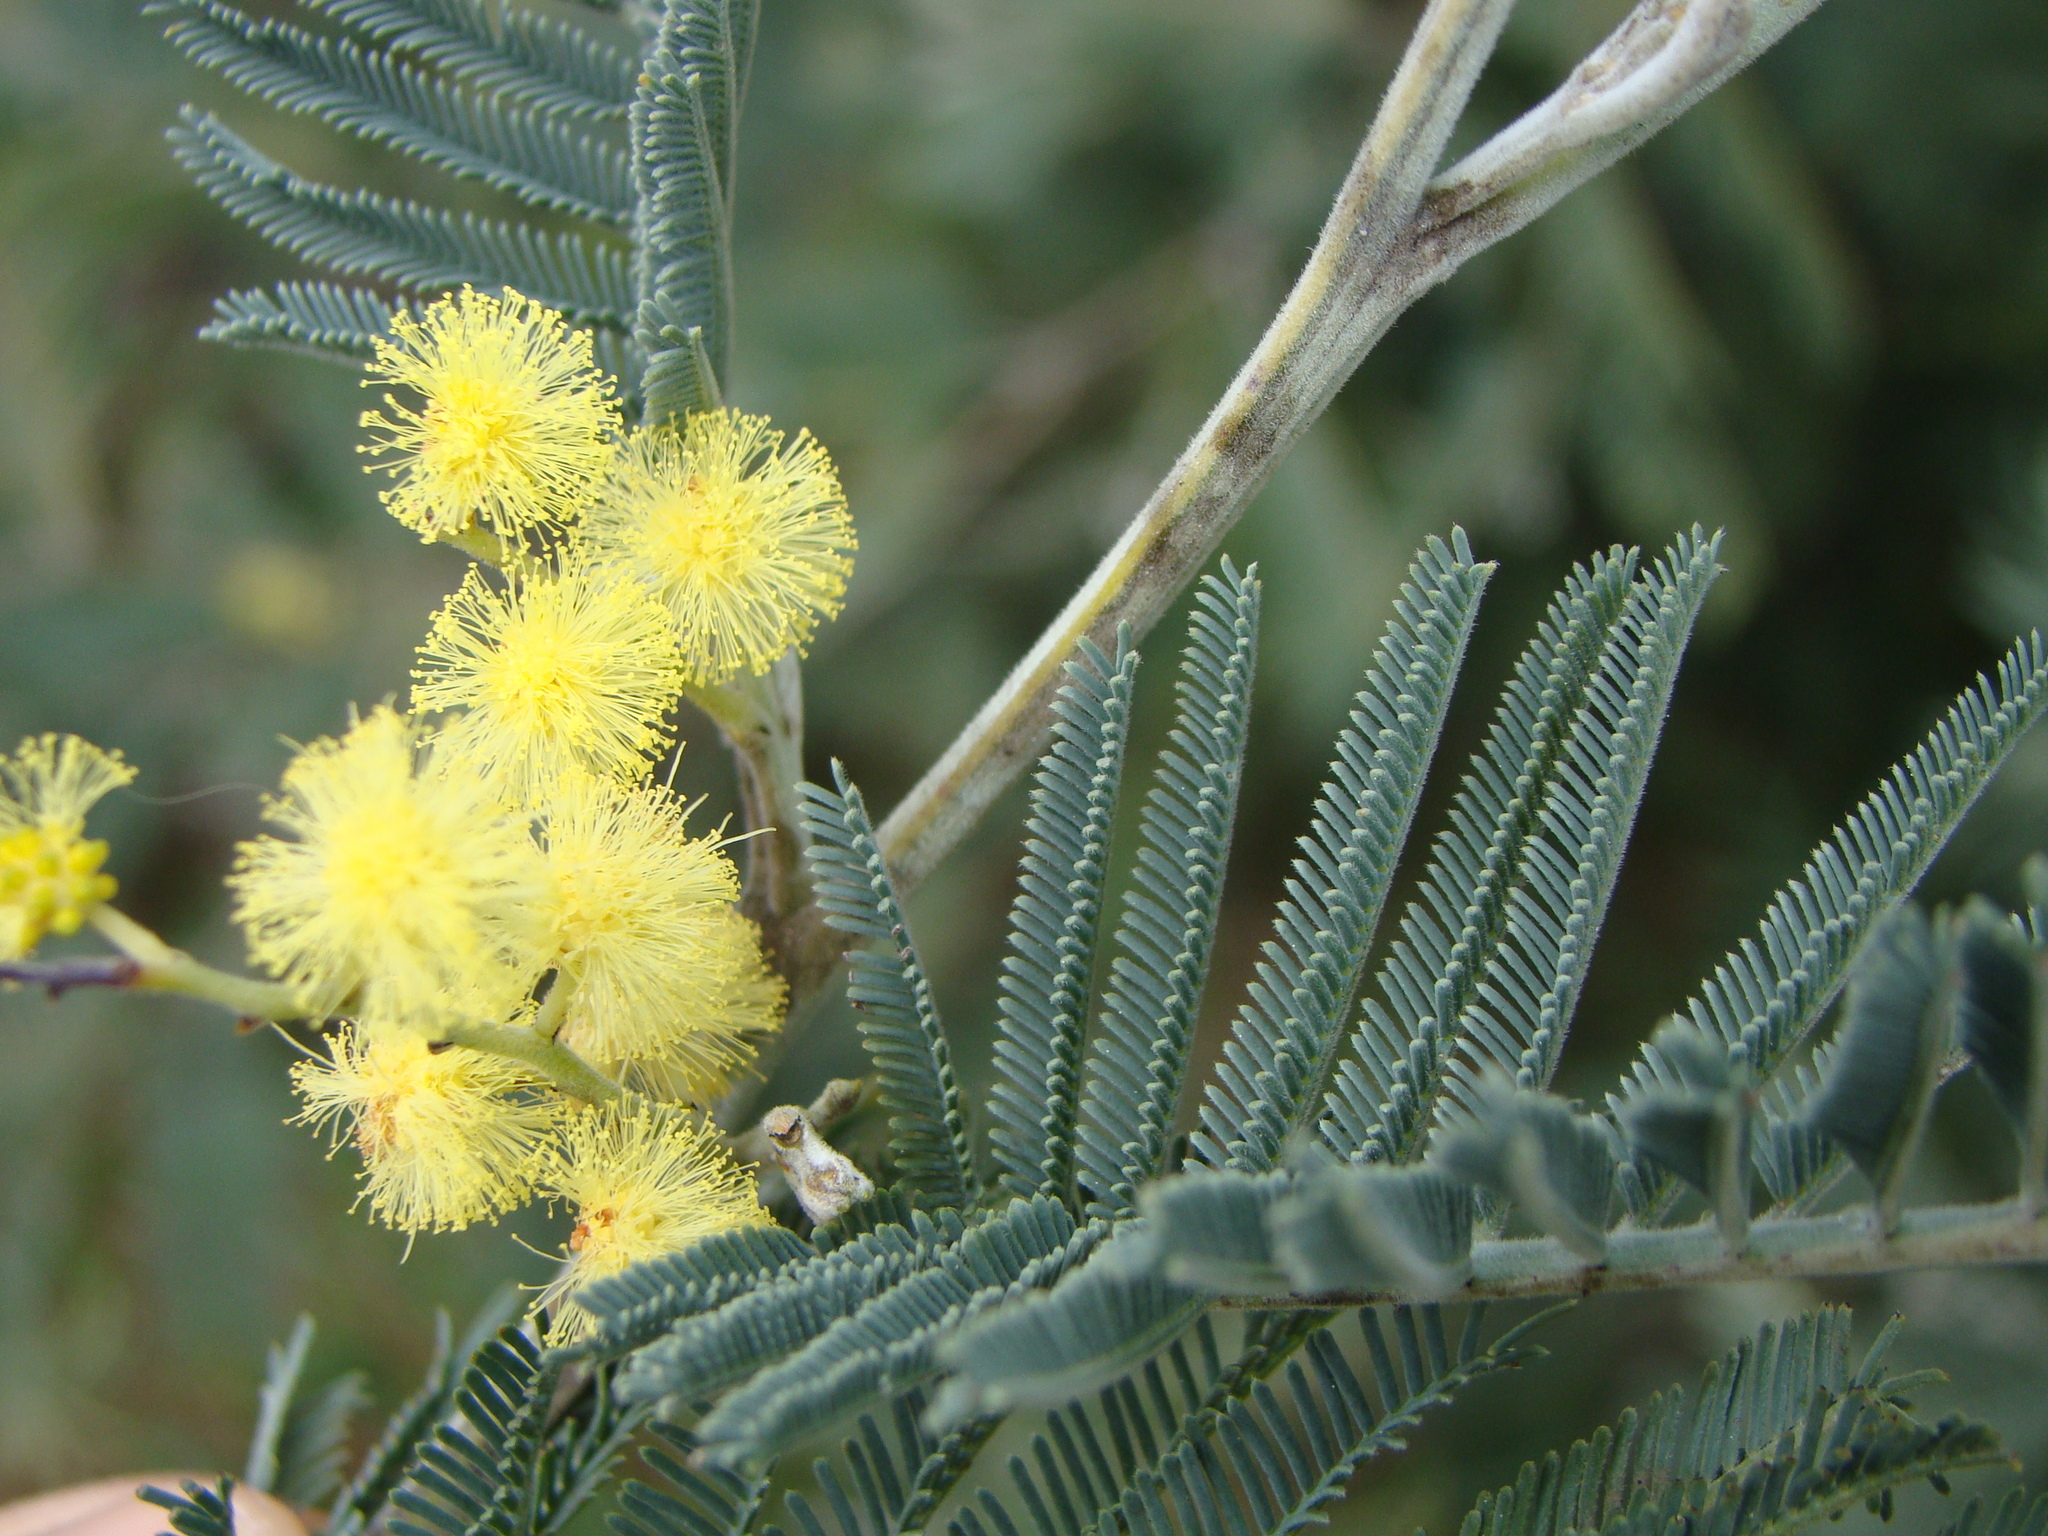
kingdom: Plantae
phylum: Tracheophyta
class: Magnoliopsida
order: Fabales
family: Fabaceae
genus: Acacia
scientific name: Acacia dealbata
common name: Silver wattle
